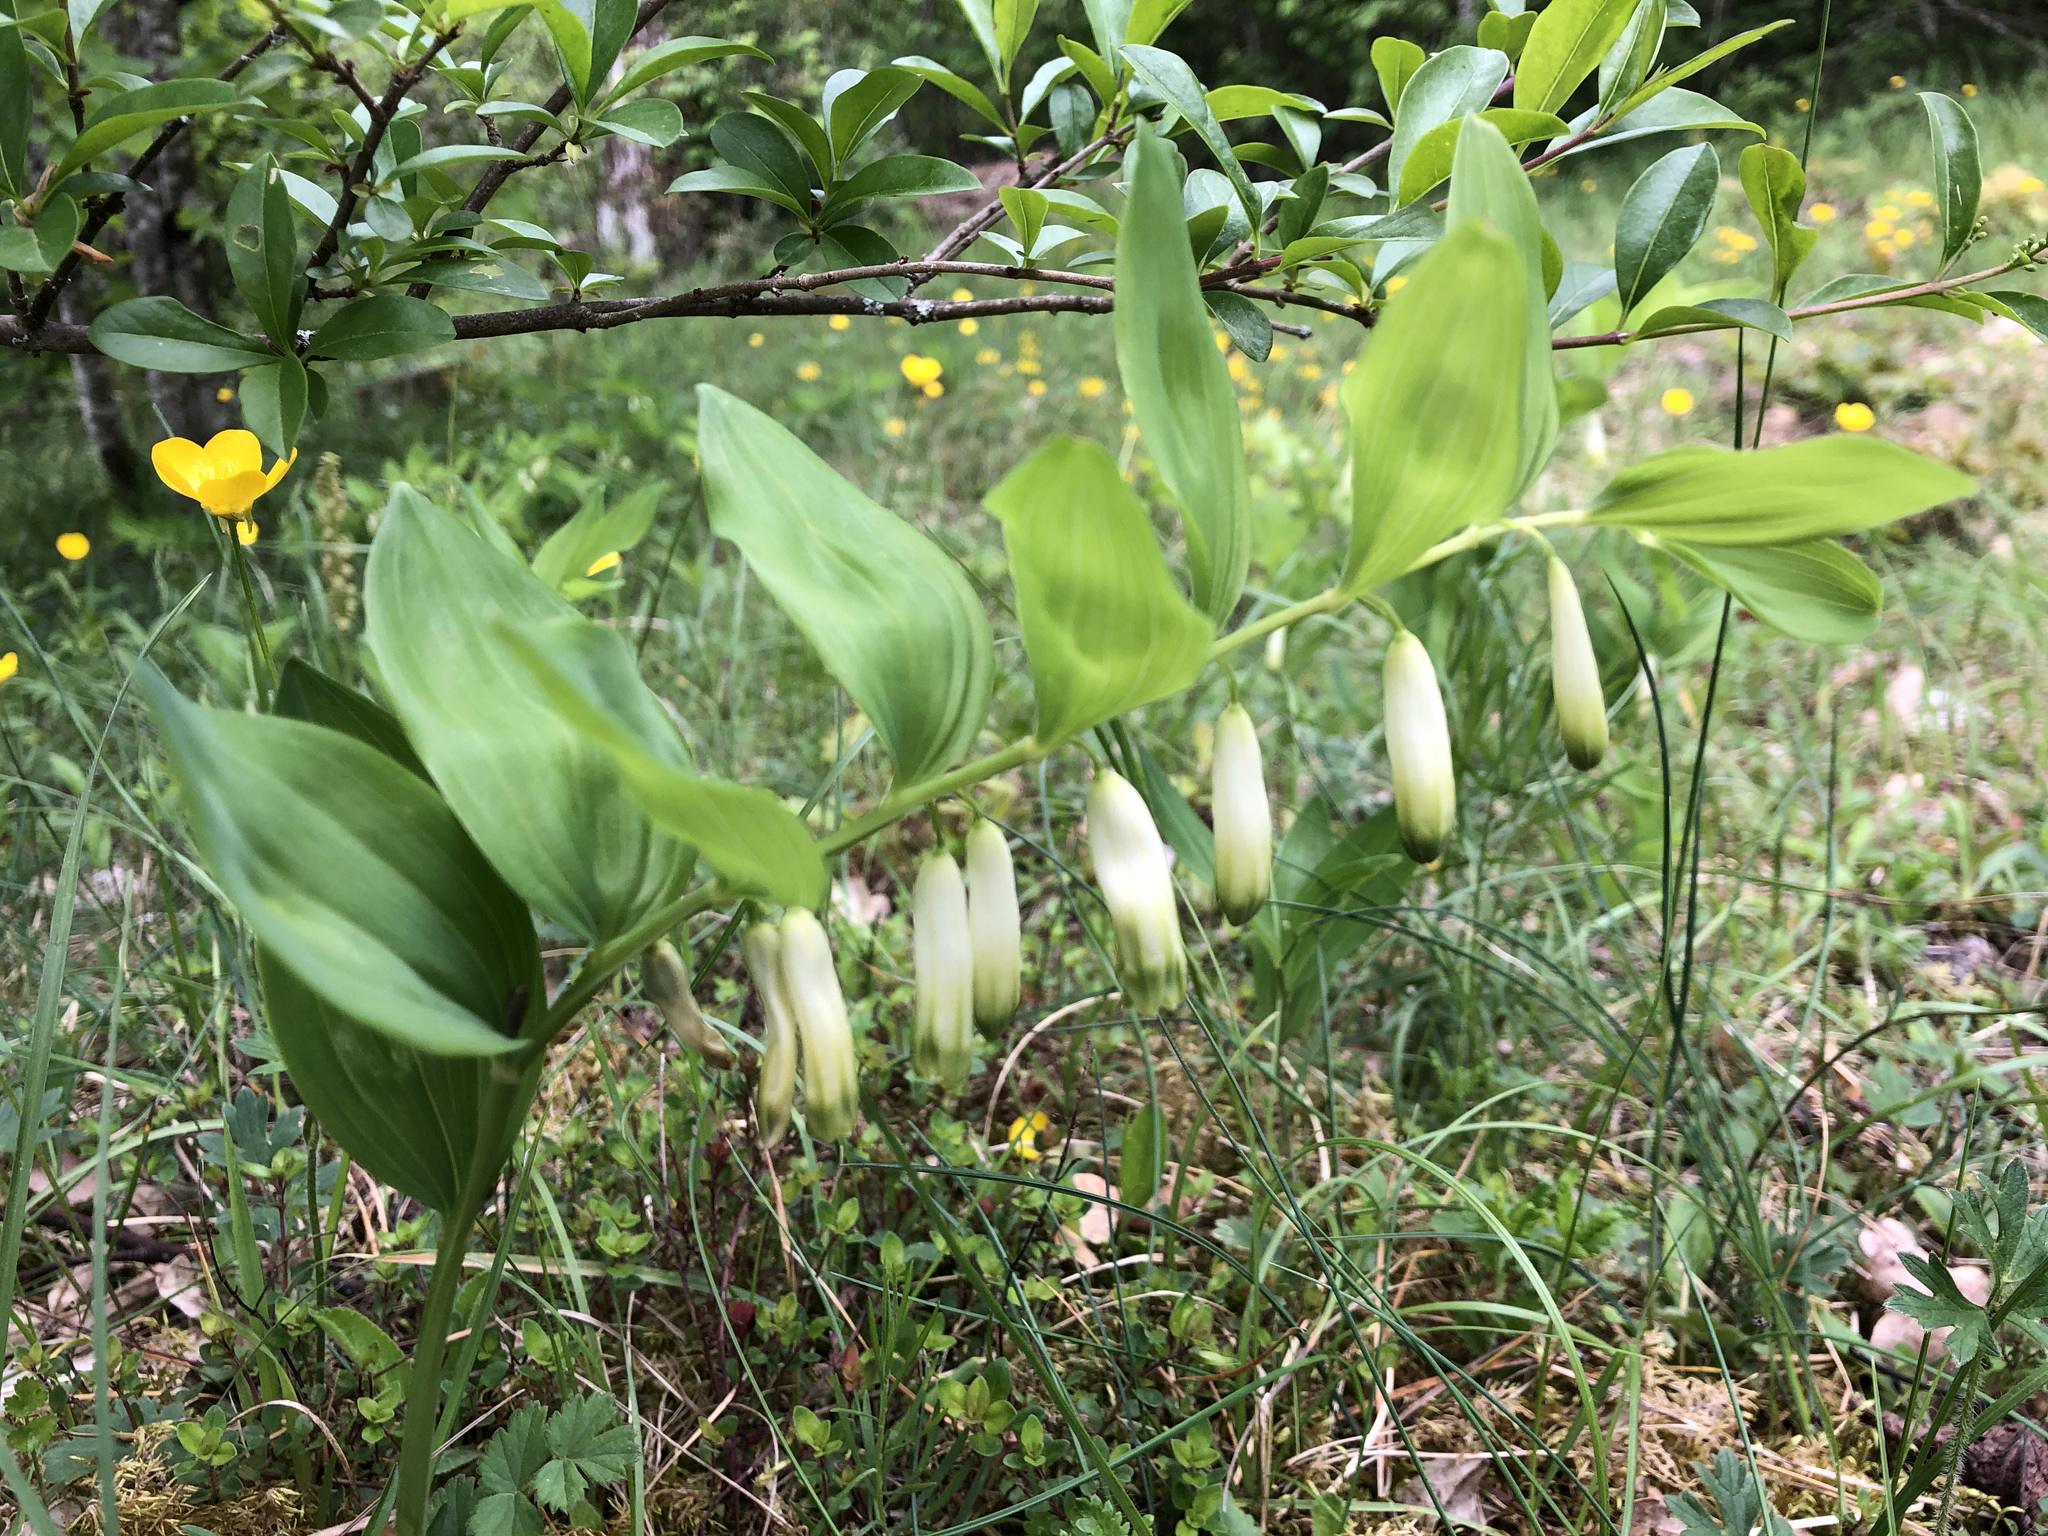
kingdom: Plantae
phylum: Tracheophyta
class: Liliopsida
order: Asparagales
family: Asparagaceae
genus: Polygonatum
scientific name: Polygonatum odoratum
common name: Angular solomon's-seal
